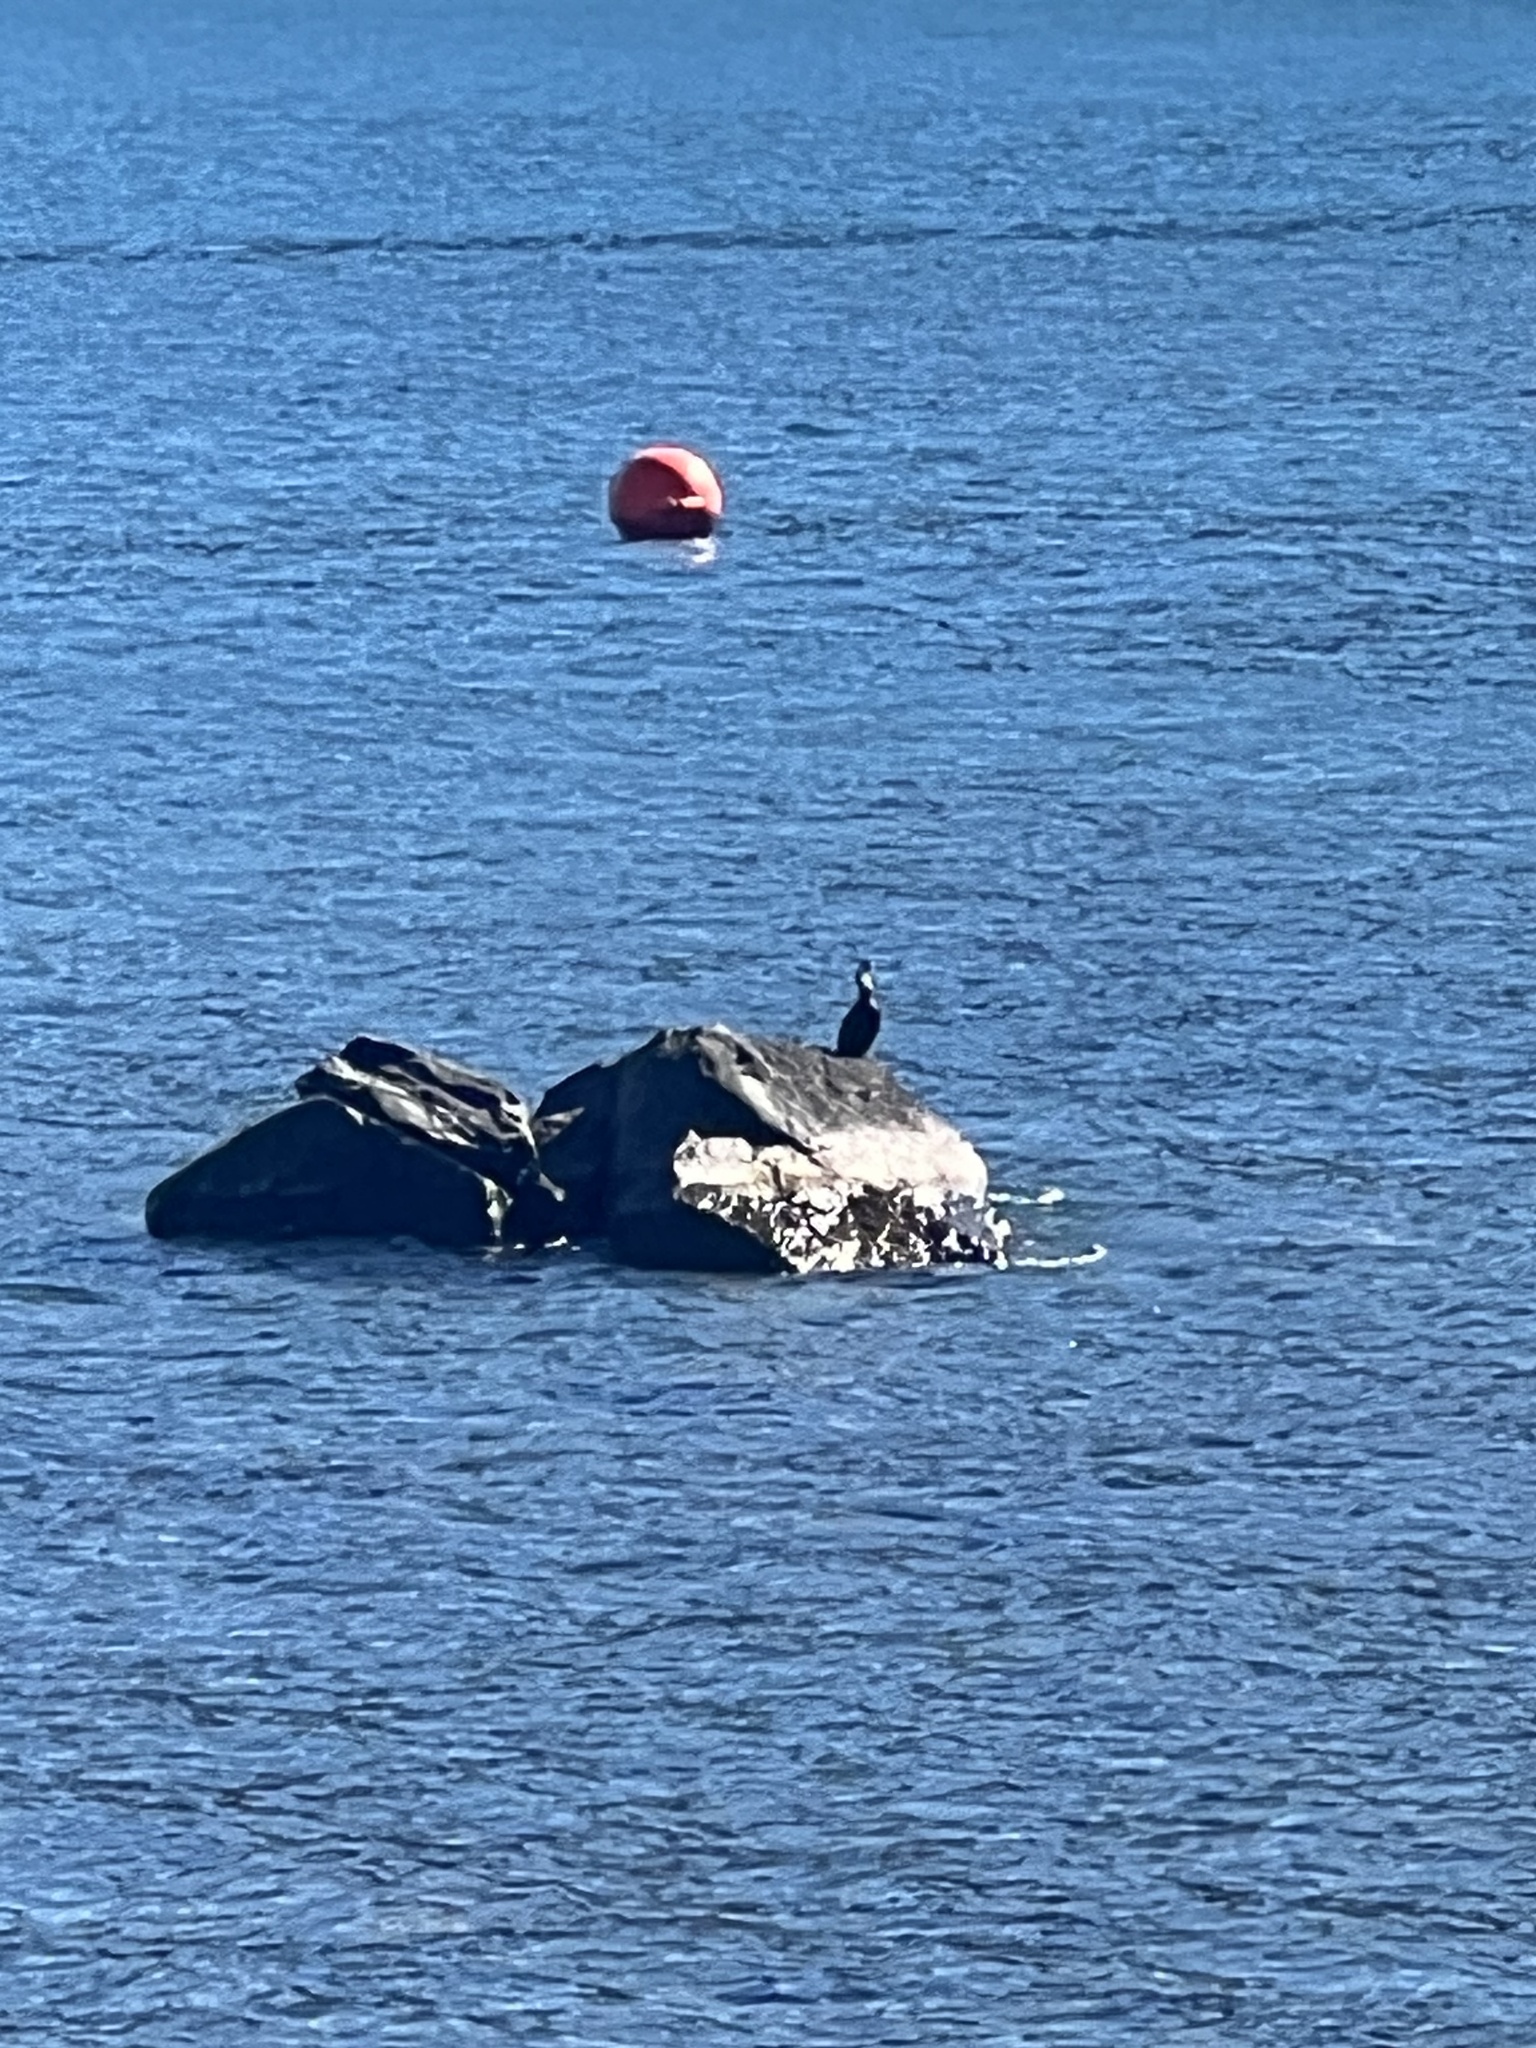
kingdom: Animalia
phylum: Chordata
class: Aves
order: Suliformes
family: Phalacrocoracidae
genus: Microcarbo
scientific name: Microcarbo melanoleucos
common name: Little pied cormorant
